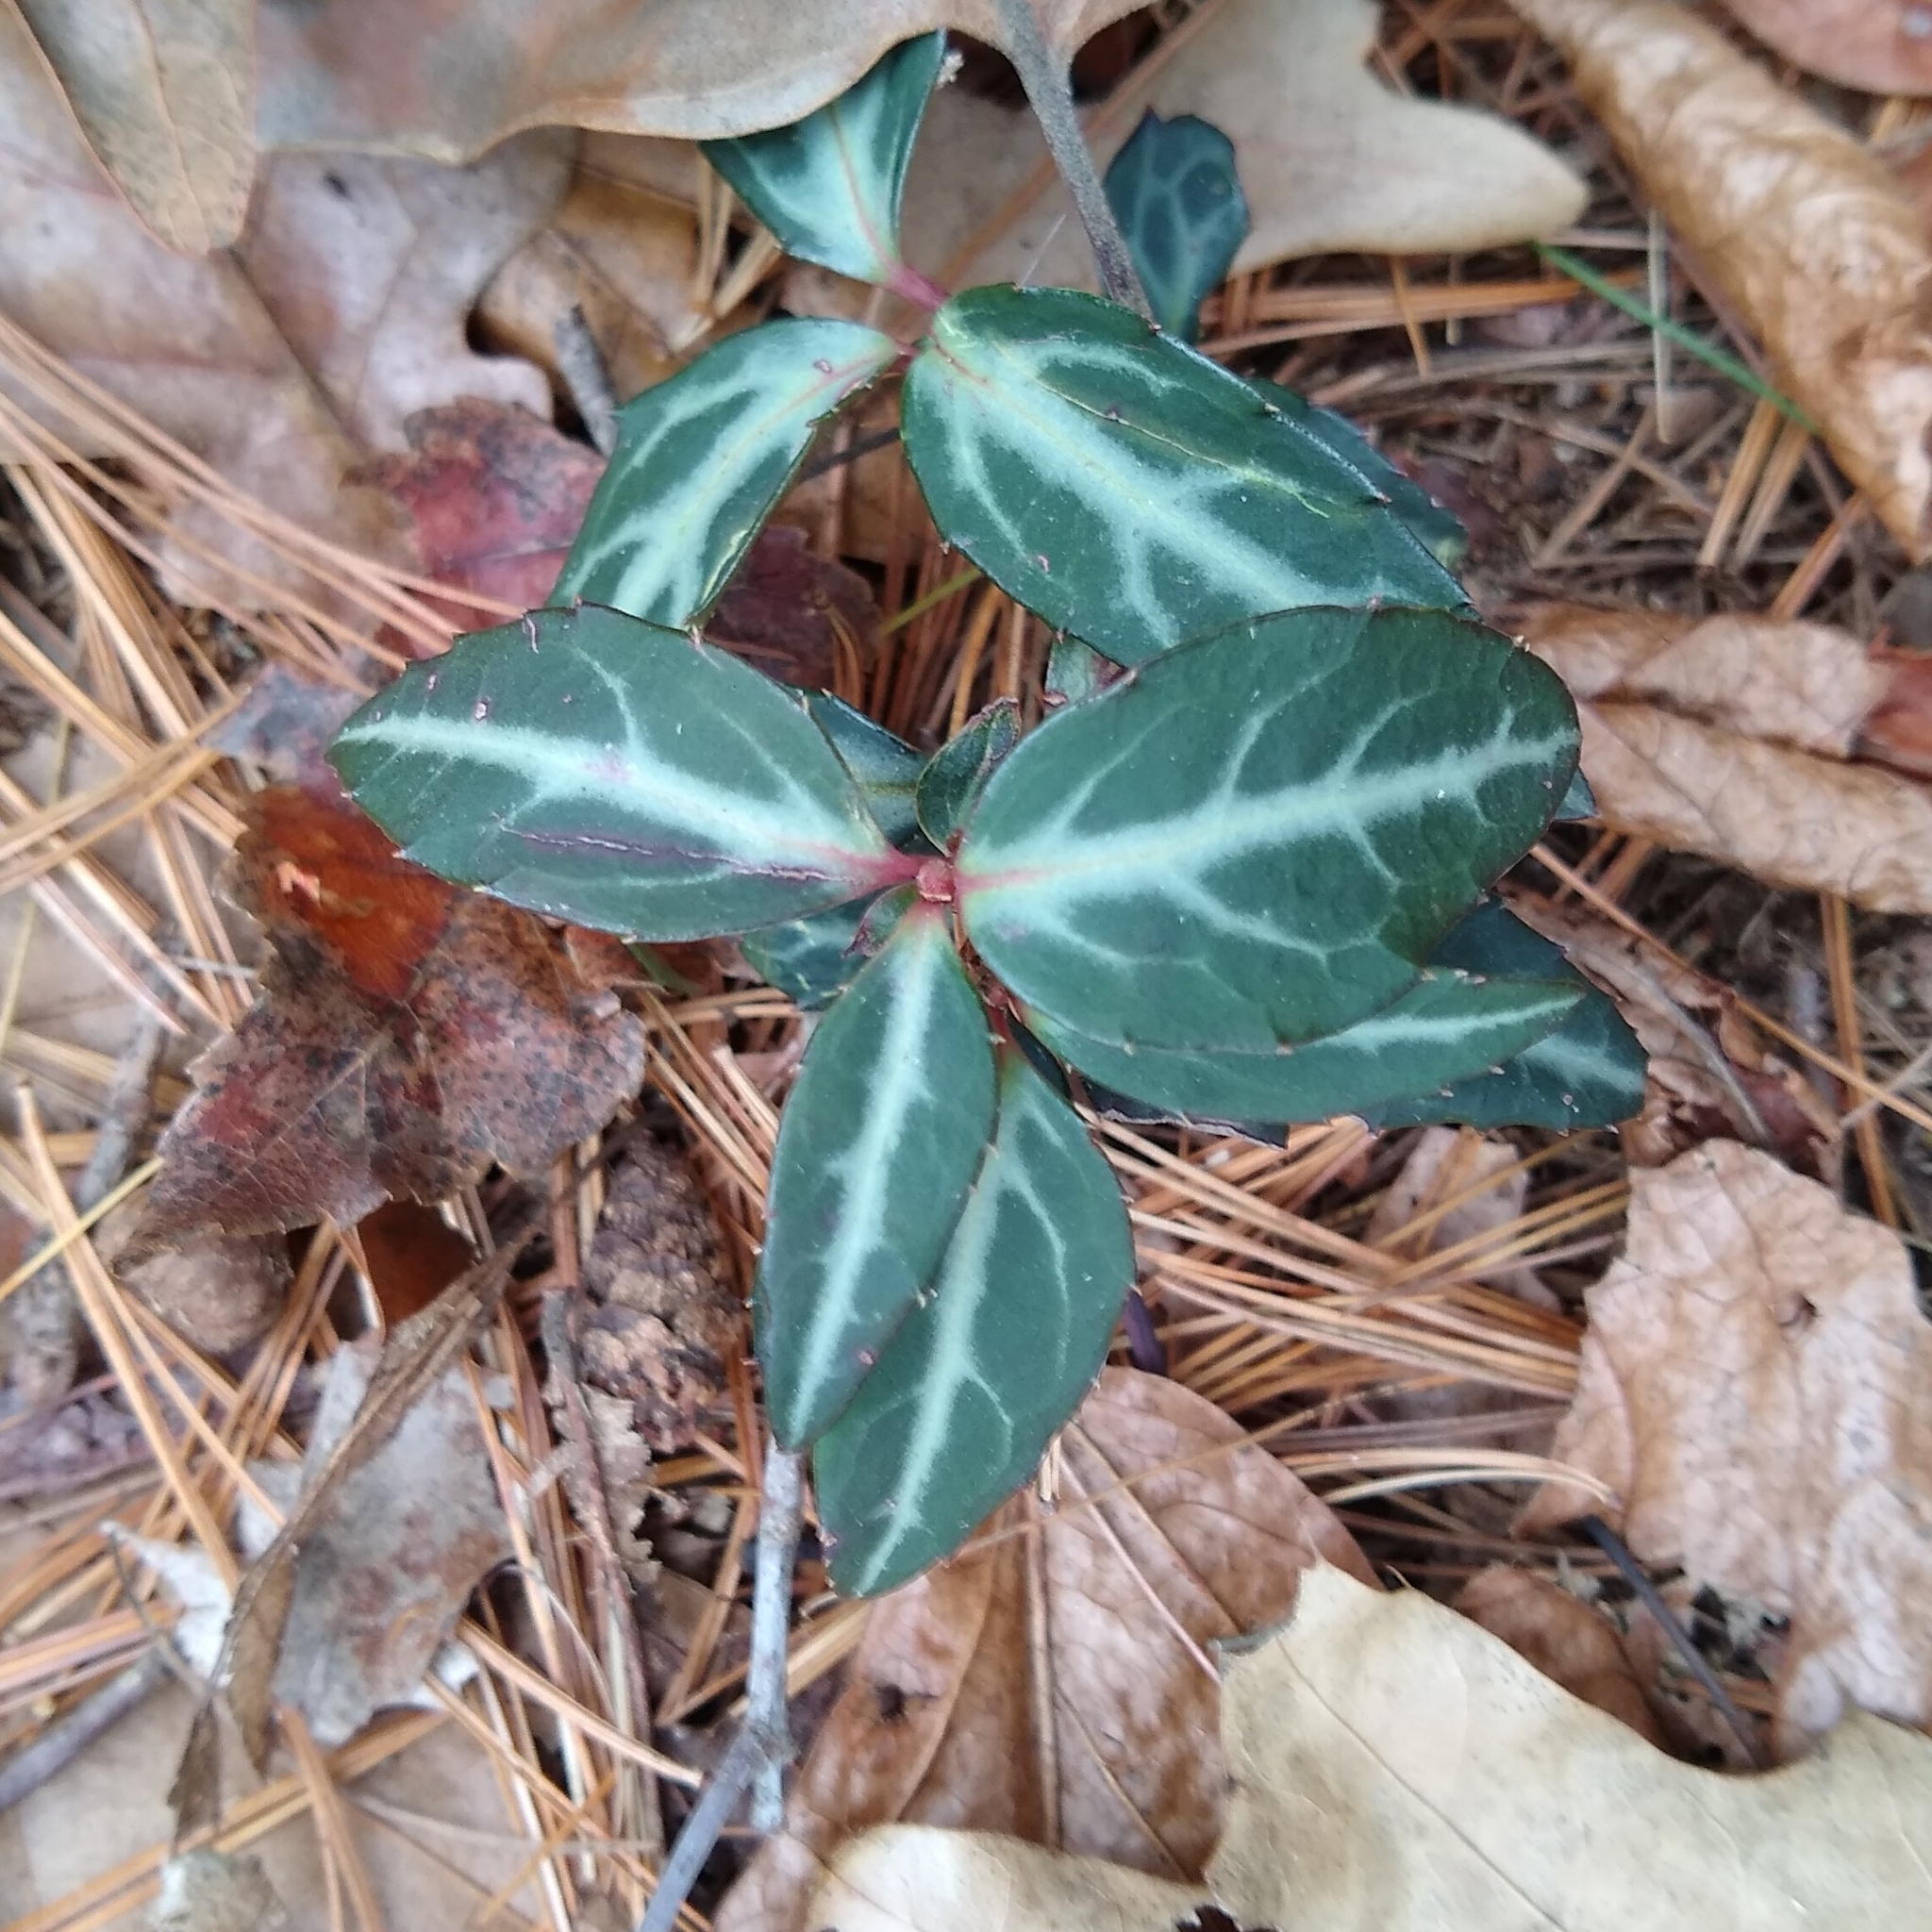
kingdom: Plantae
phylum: Tracheophyta
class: Magnoliopsida
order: Ericales
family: Ericaceae
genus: Chimaphila
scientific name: Chimaphila maculata
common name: Spotted pipsissewa
